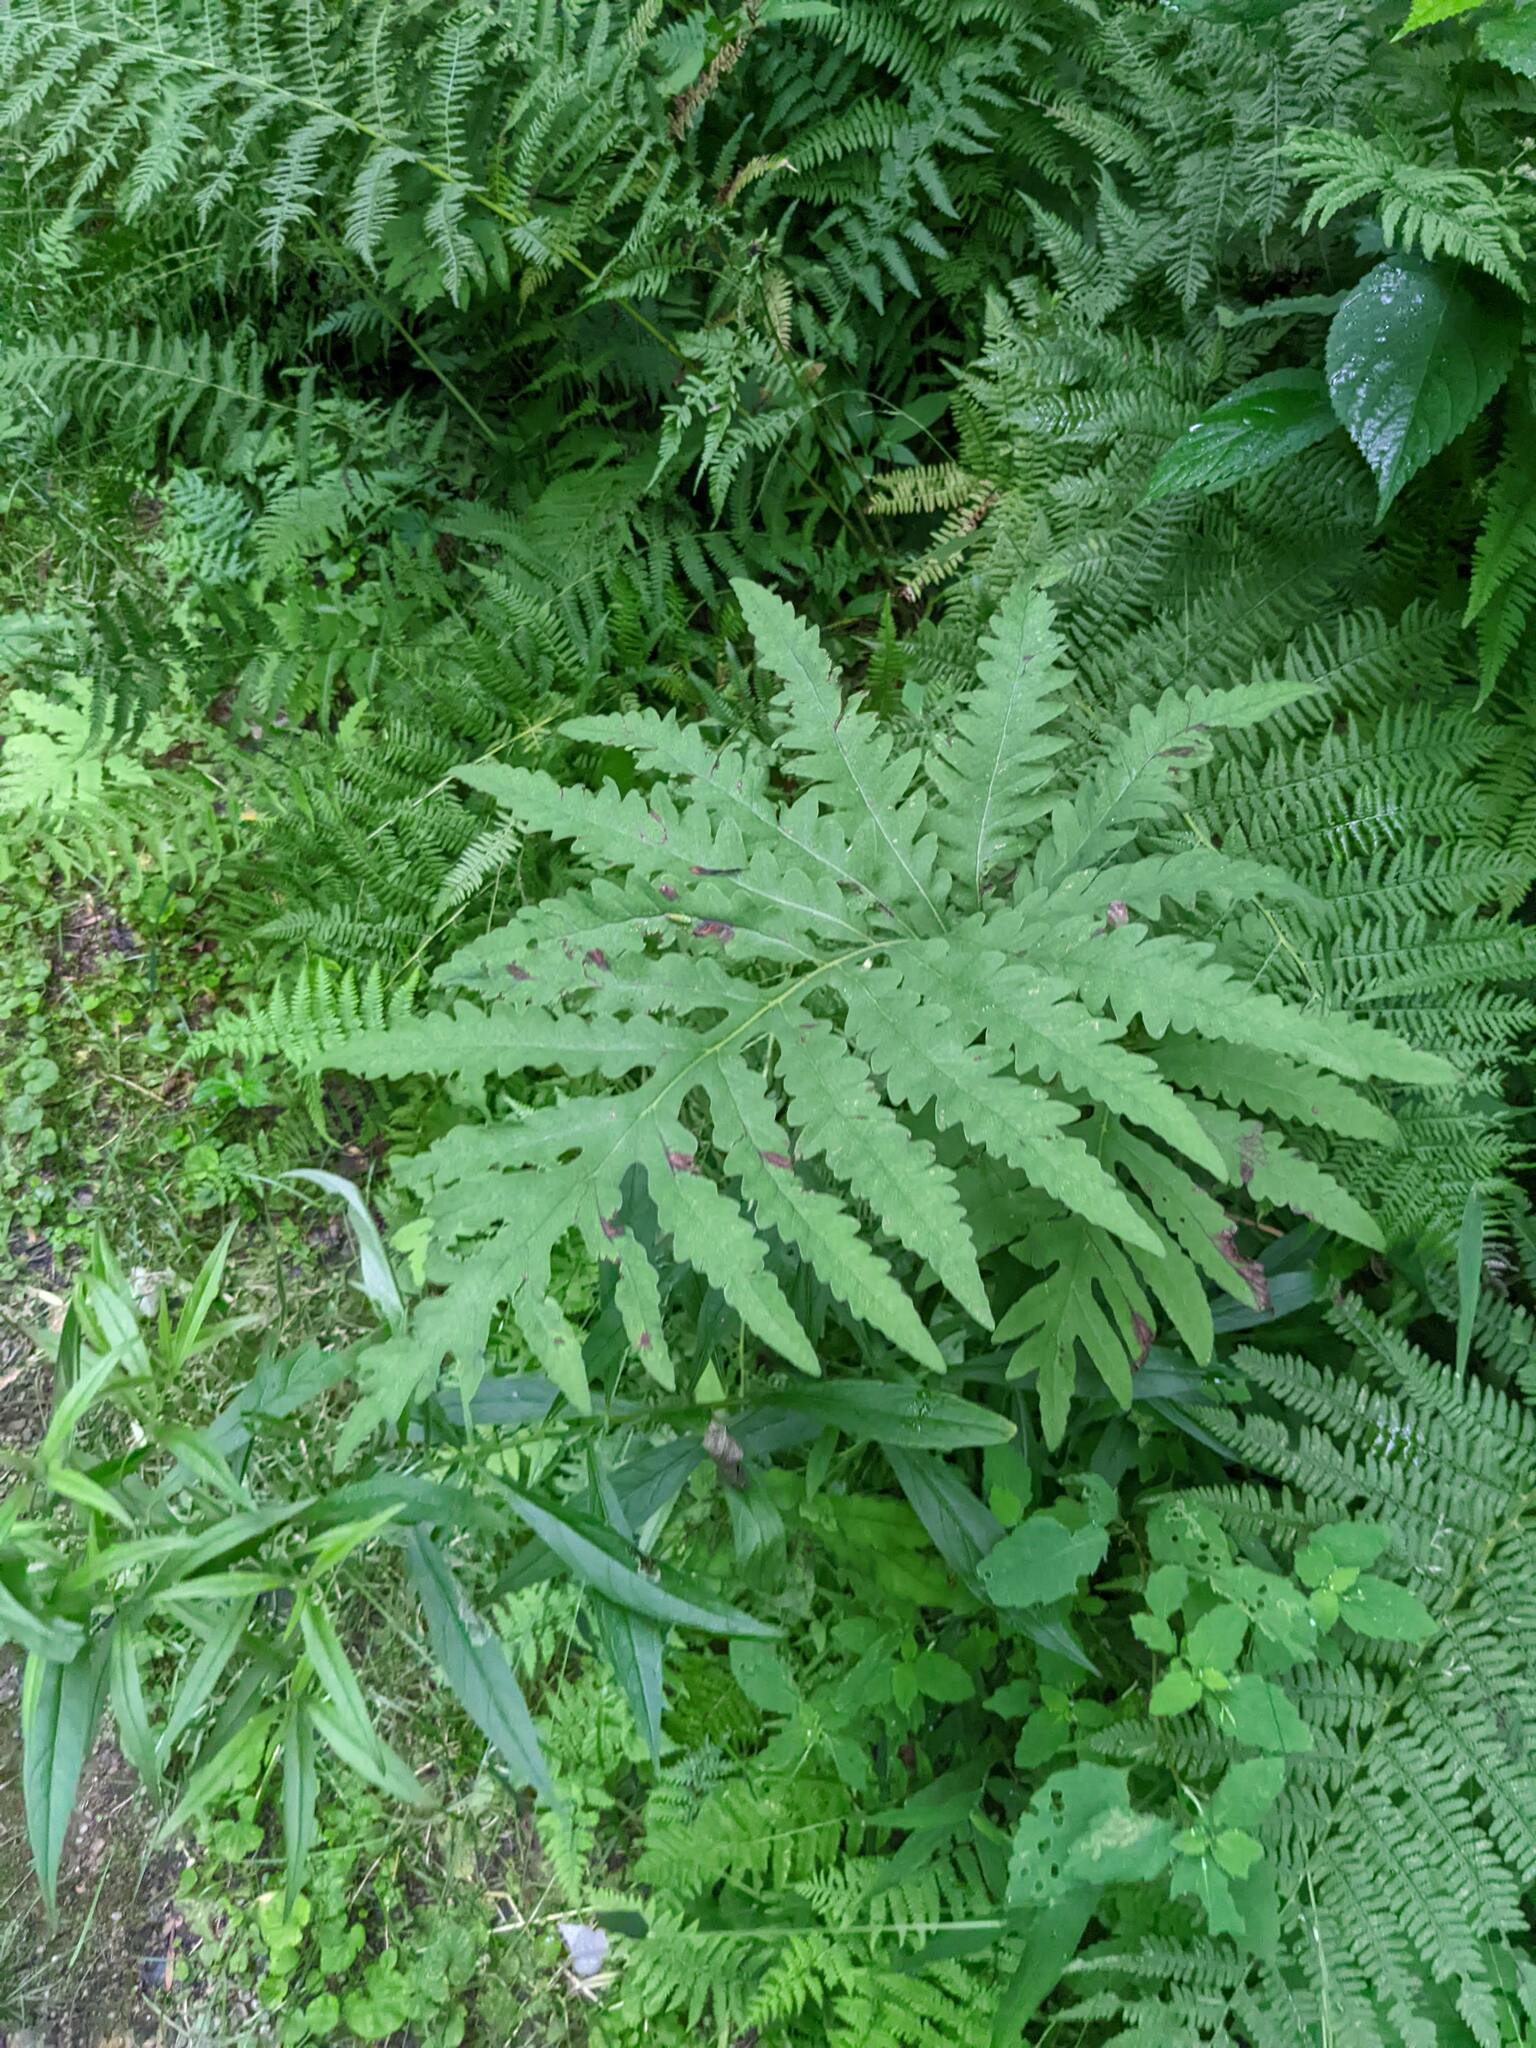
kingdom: Plantae
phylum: Tracheophyta
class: Polypodiopsida
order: Polypodiales
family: Onocleaceae
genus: Onoclea
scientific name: Onoclea sensibilis
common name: Sensitive fern
